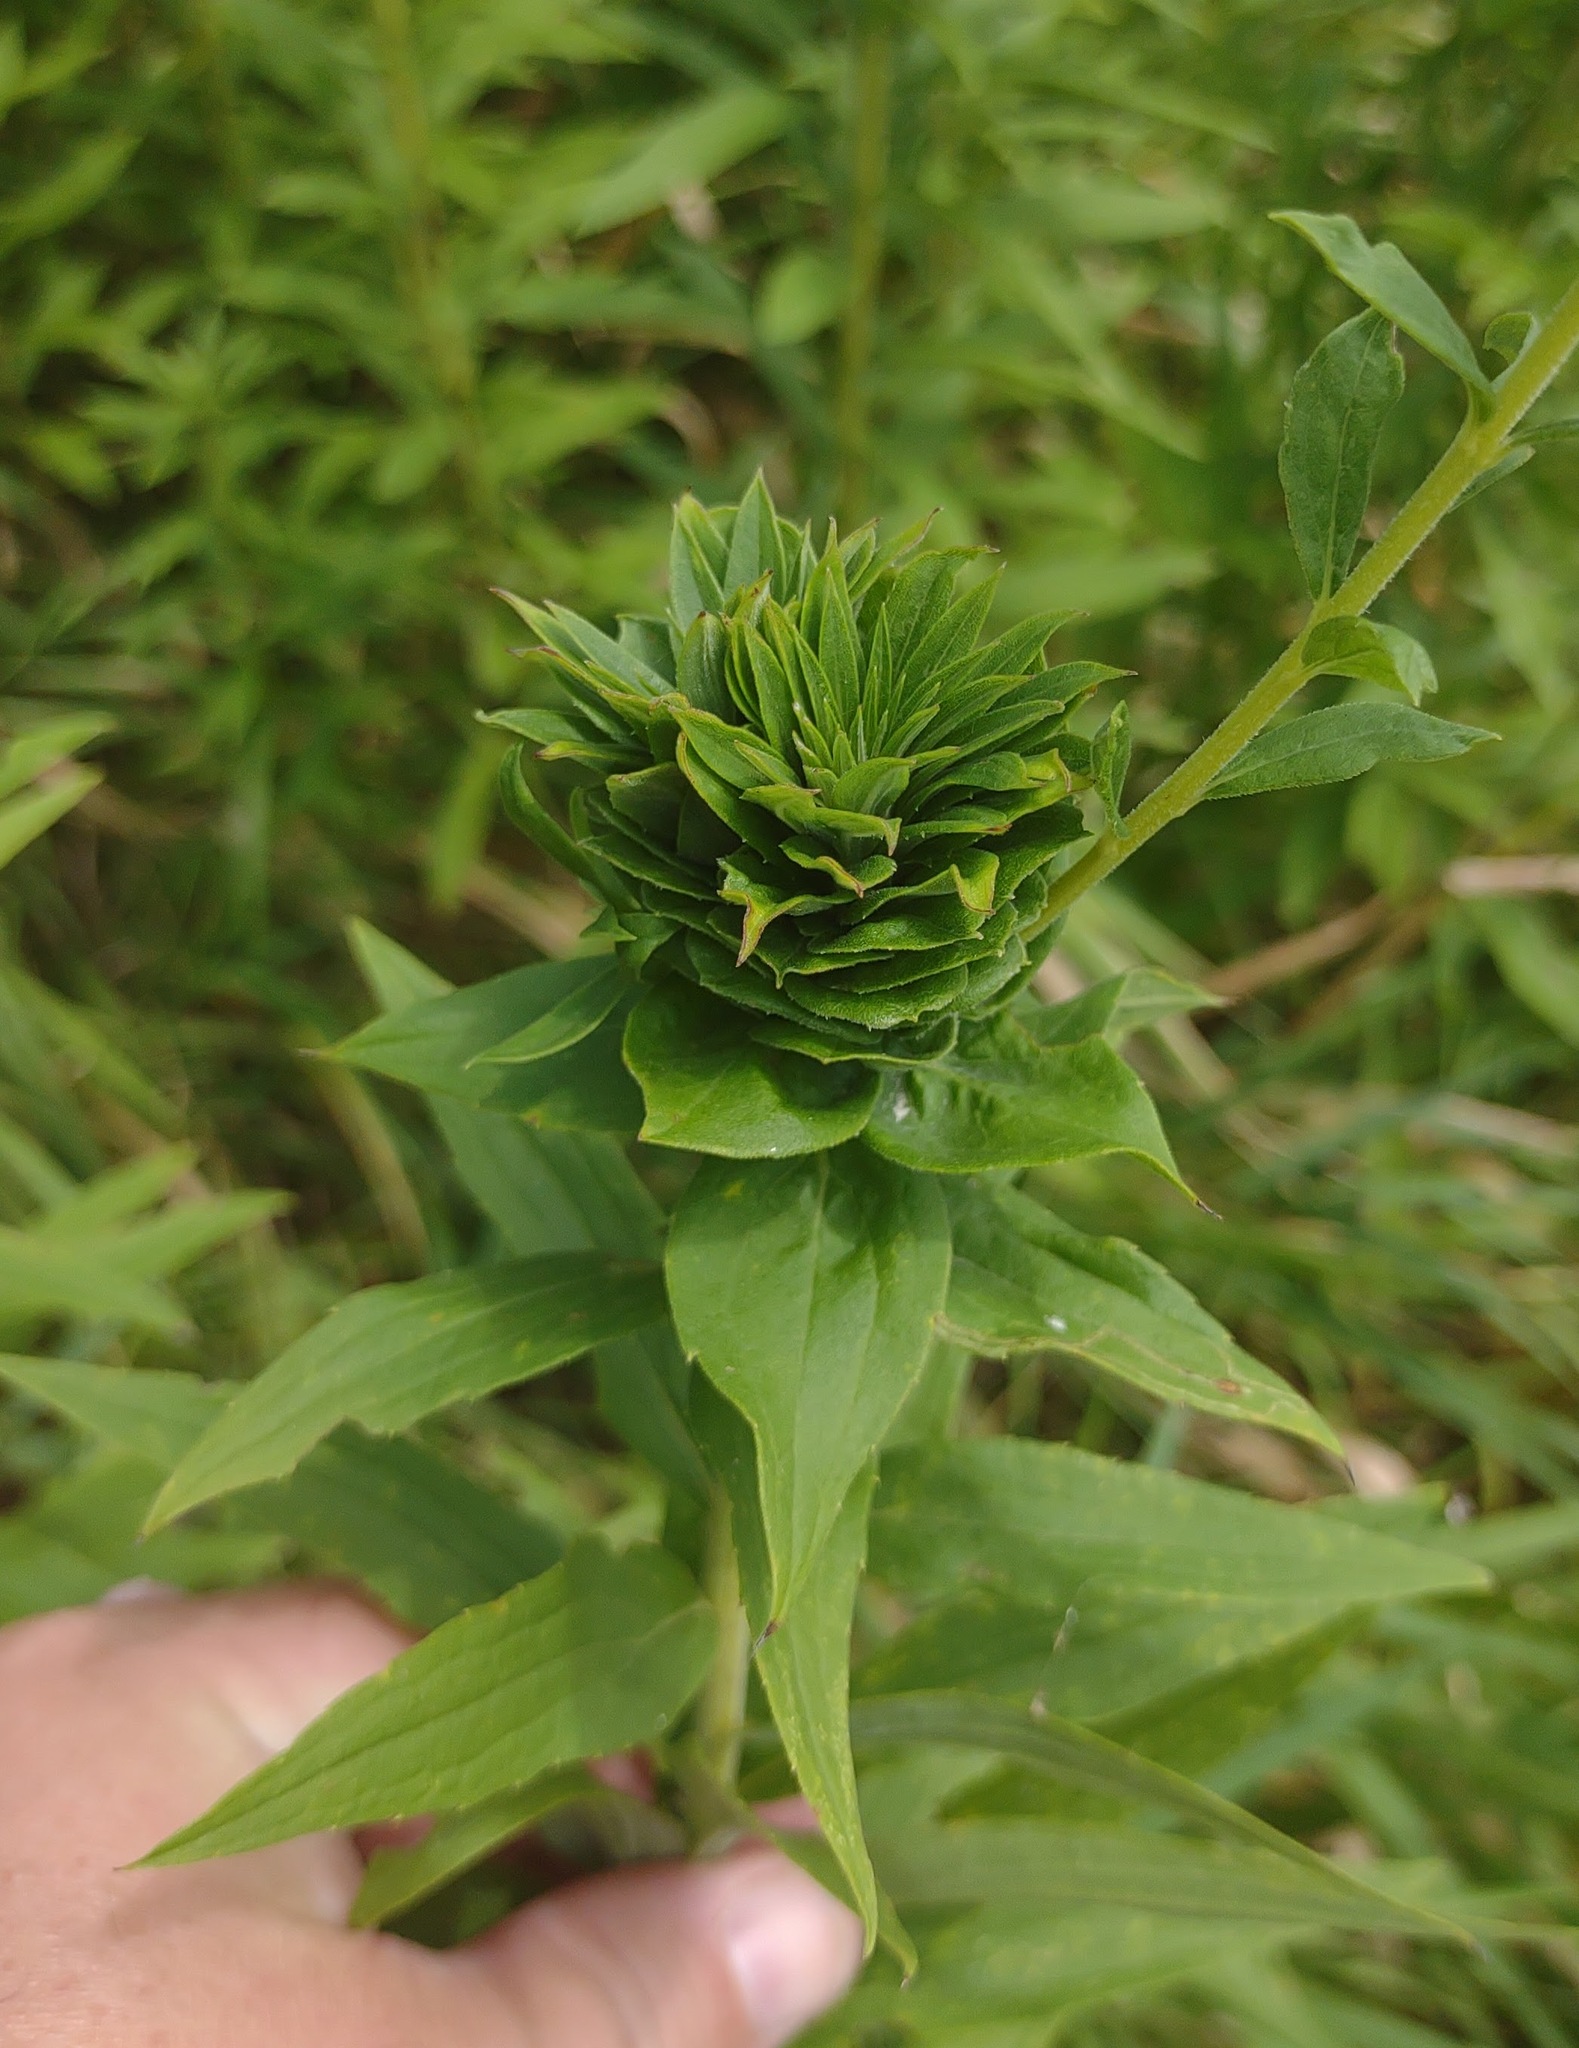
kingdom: Animalia
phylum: Arthropoda
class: Insecta
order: Diptera
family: Cecidomyiidae
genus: Rhopalomyia
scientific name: Rhopalomyia solidaginis
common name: Goldenrod bunch gall midge
